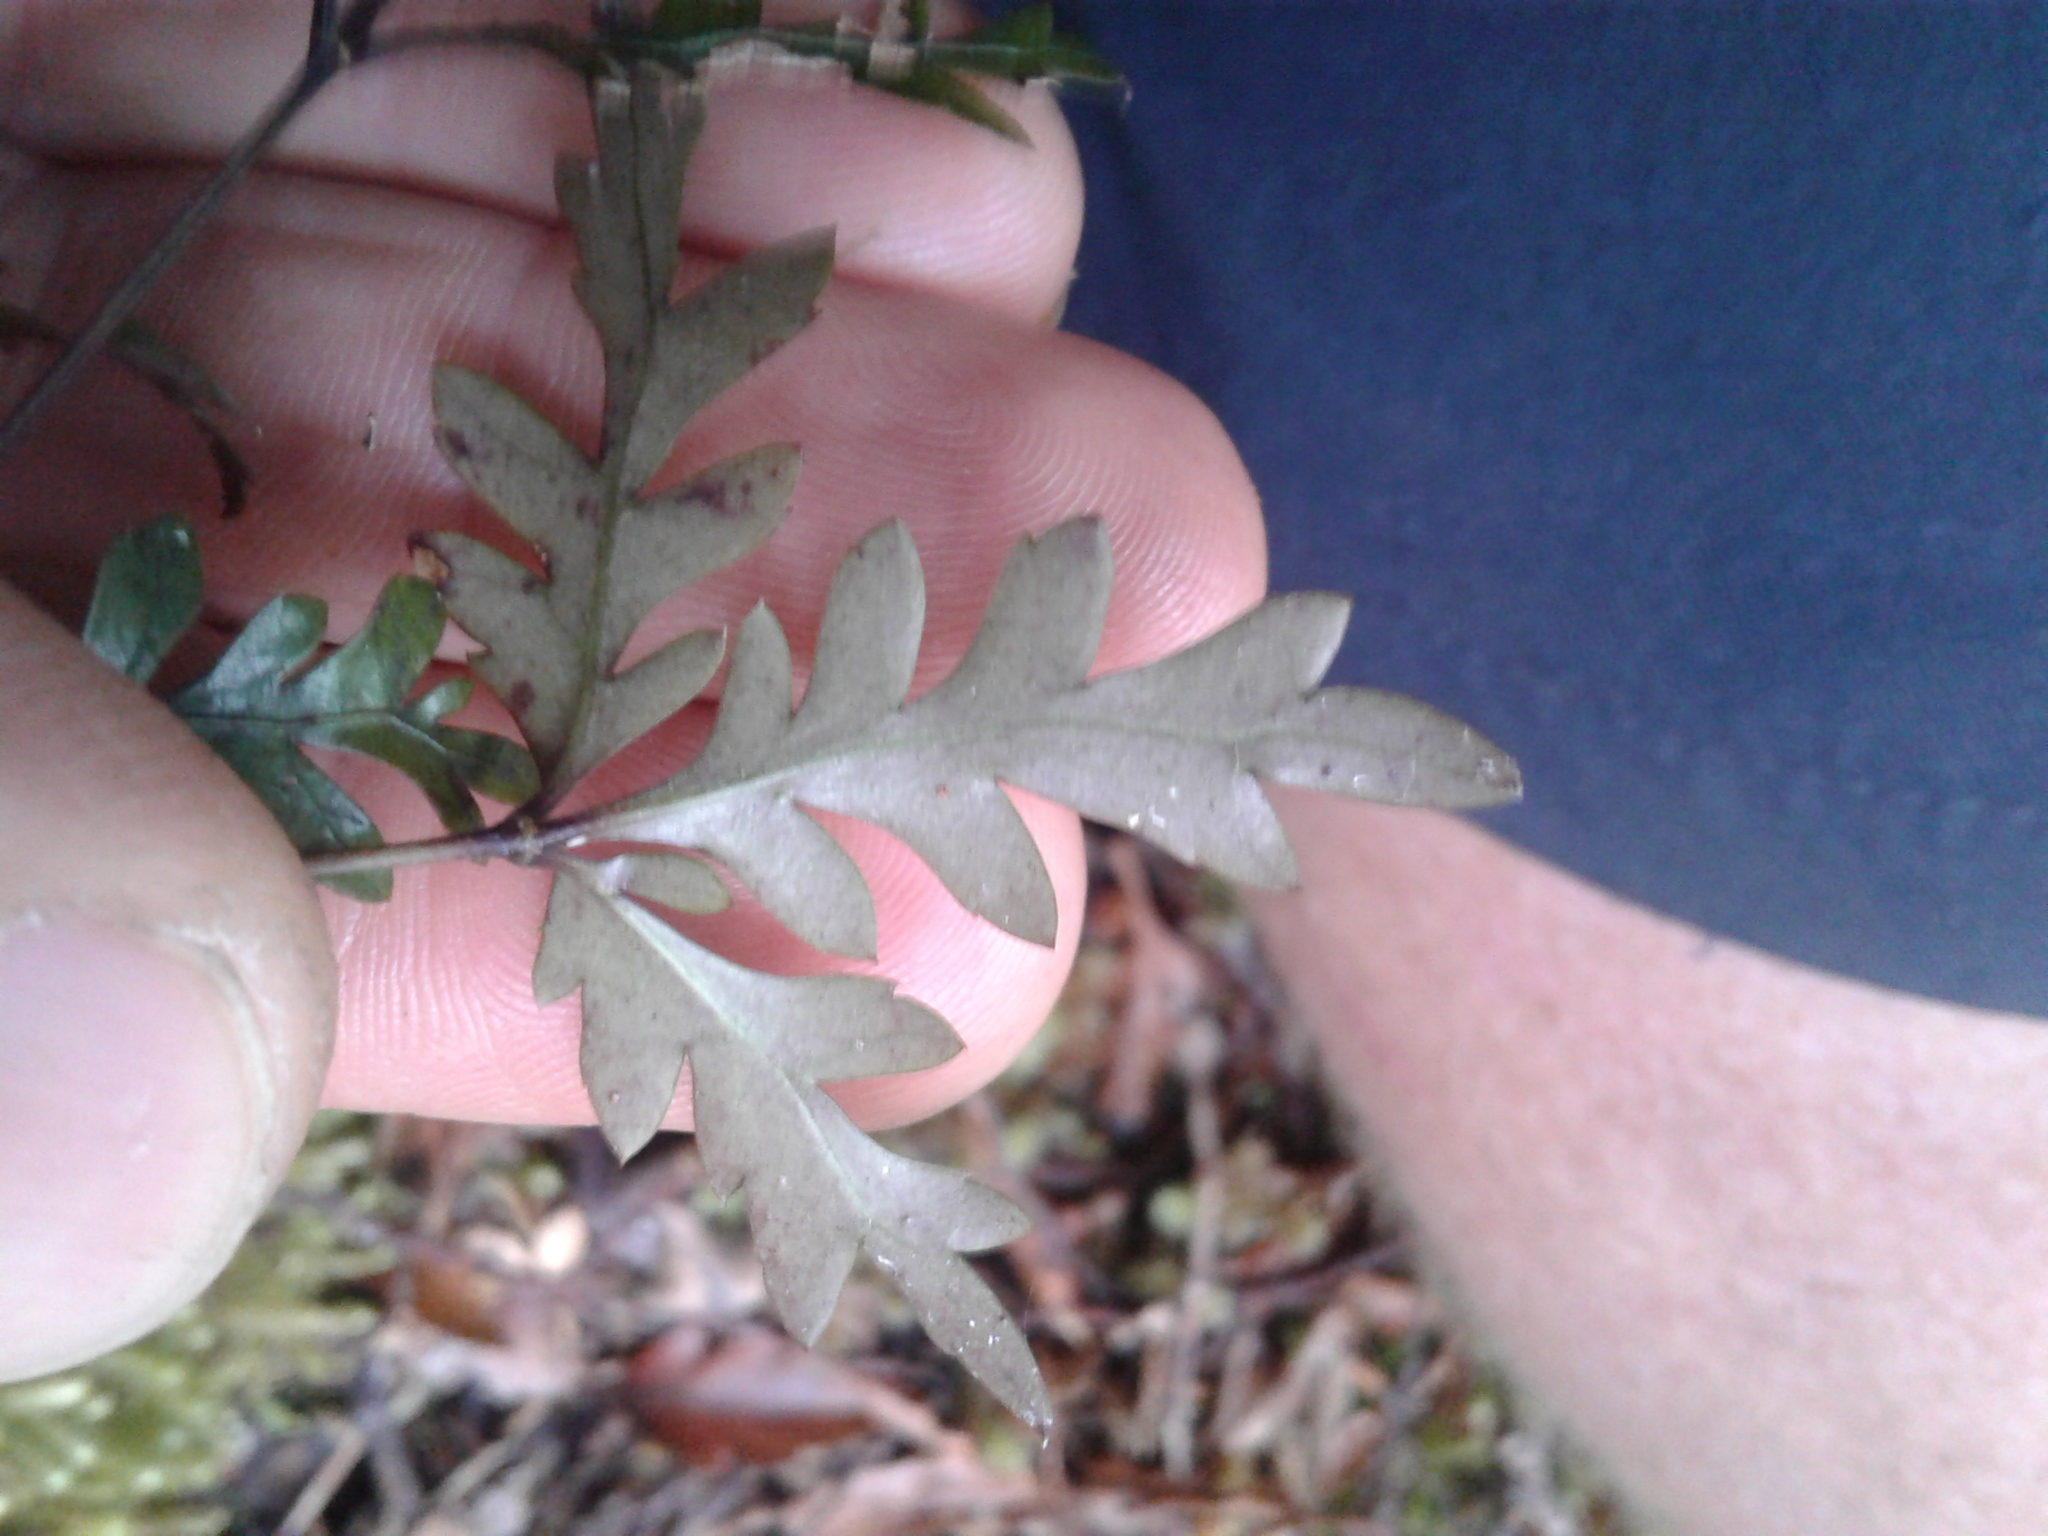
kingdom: Plantae
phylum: Tracheophyta
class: Magnoliopsida
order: Apiales
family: Araliaceae
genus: Raukaua
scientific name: Raukaua simplex
